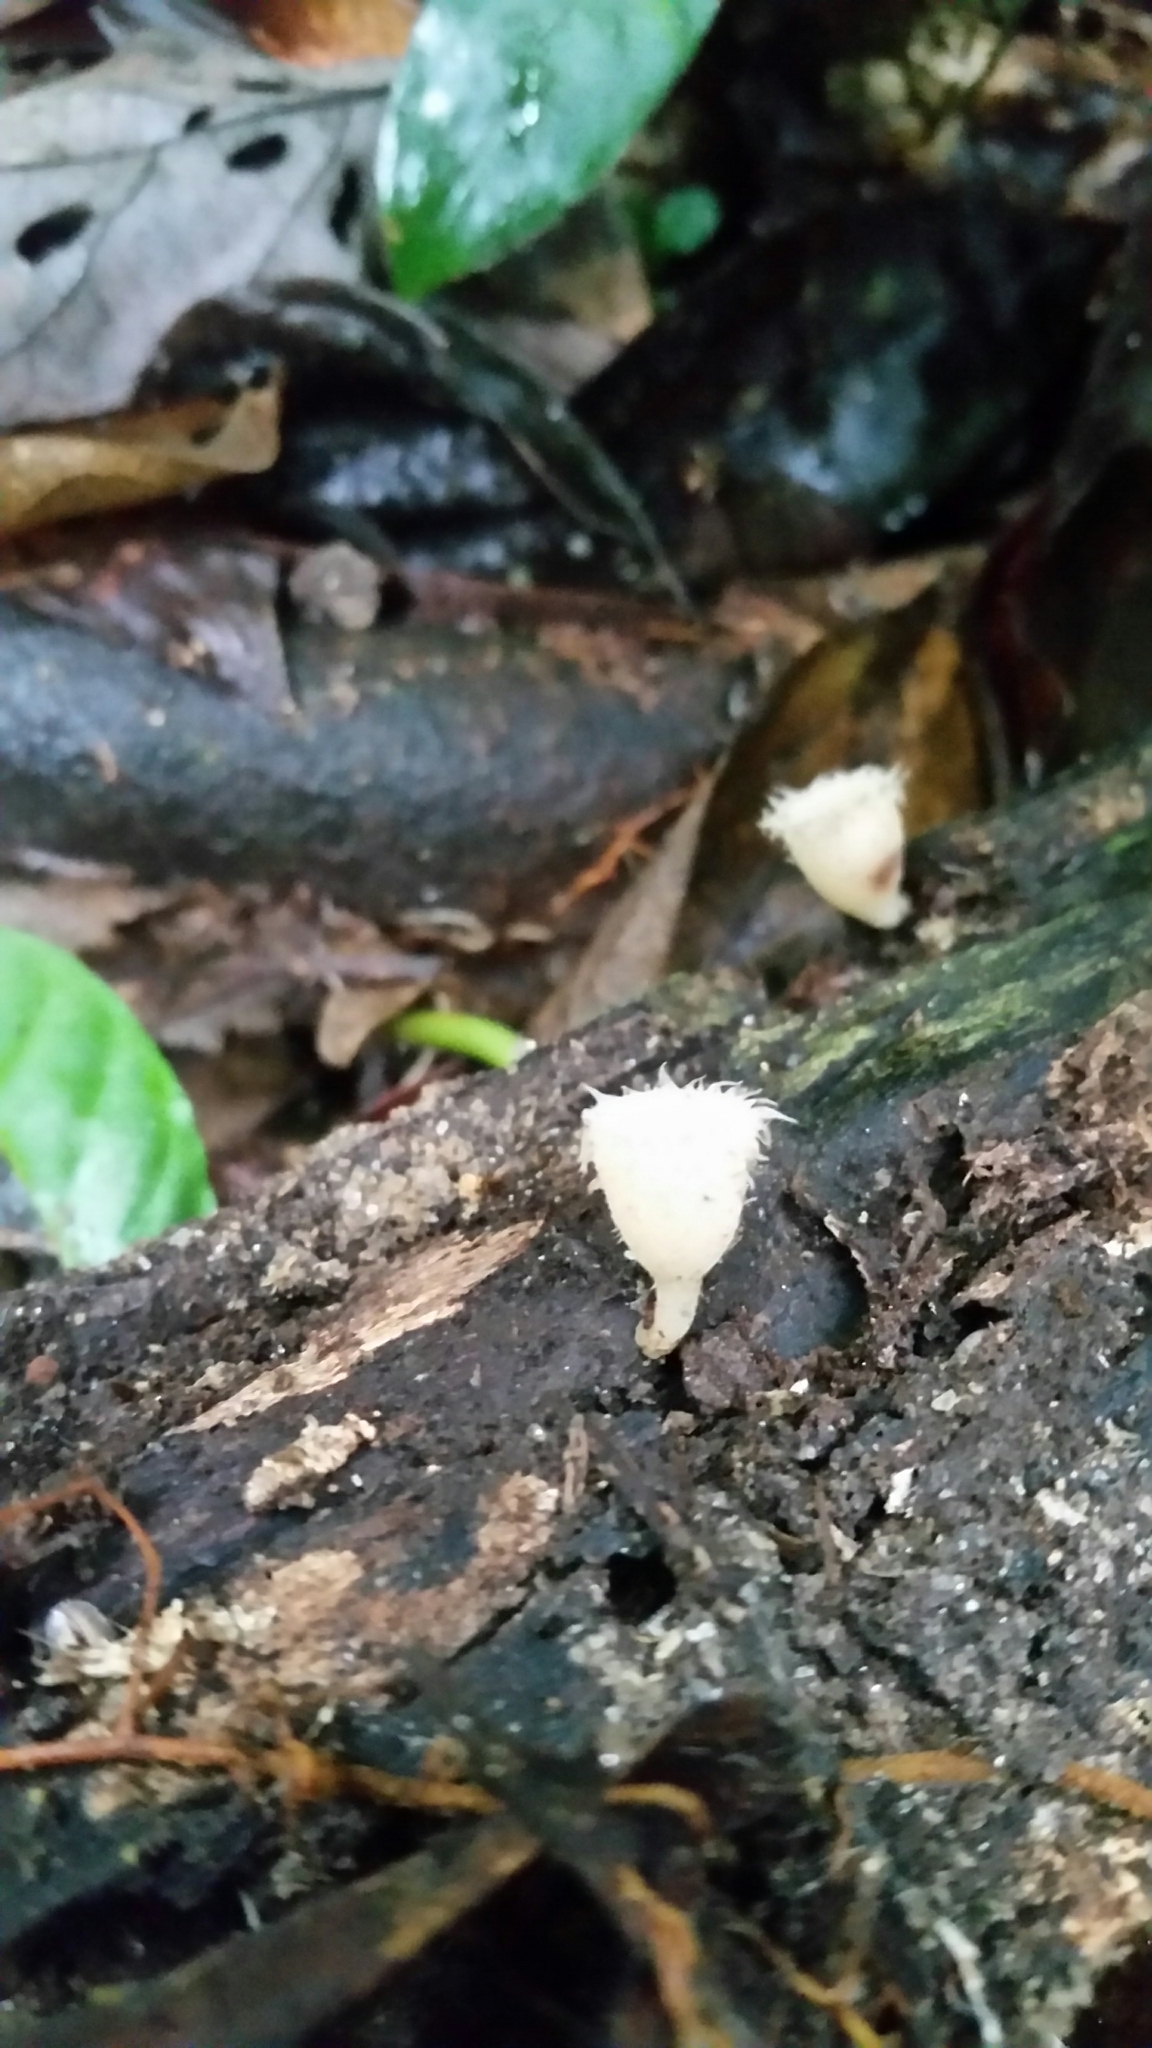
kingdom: Fungi
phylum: Ascomycota
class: Pezizomycetes
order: Pezizales
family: Sarcoscyphaceae
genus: Cookeina
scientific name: Cookeina insititia
